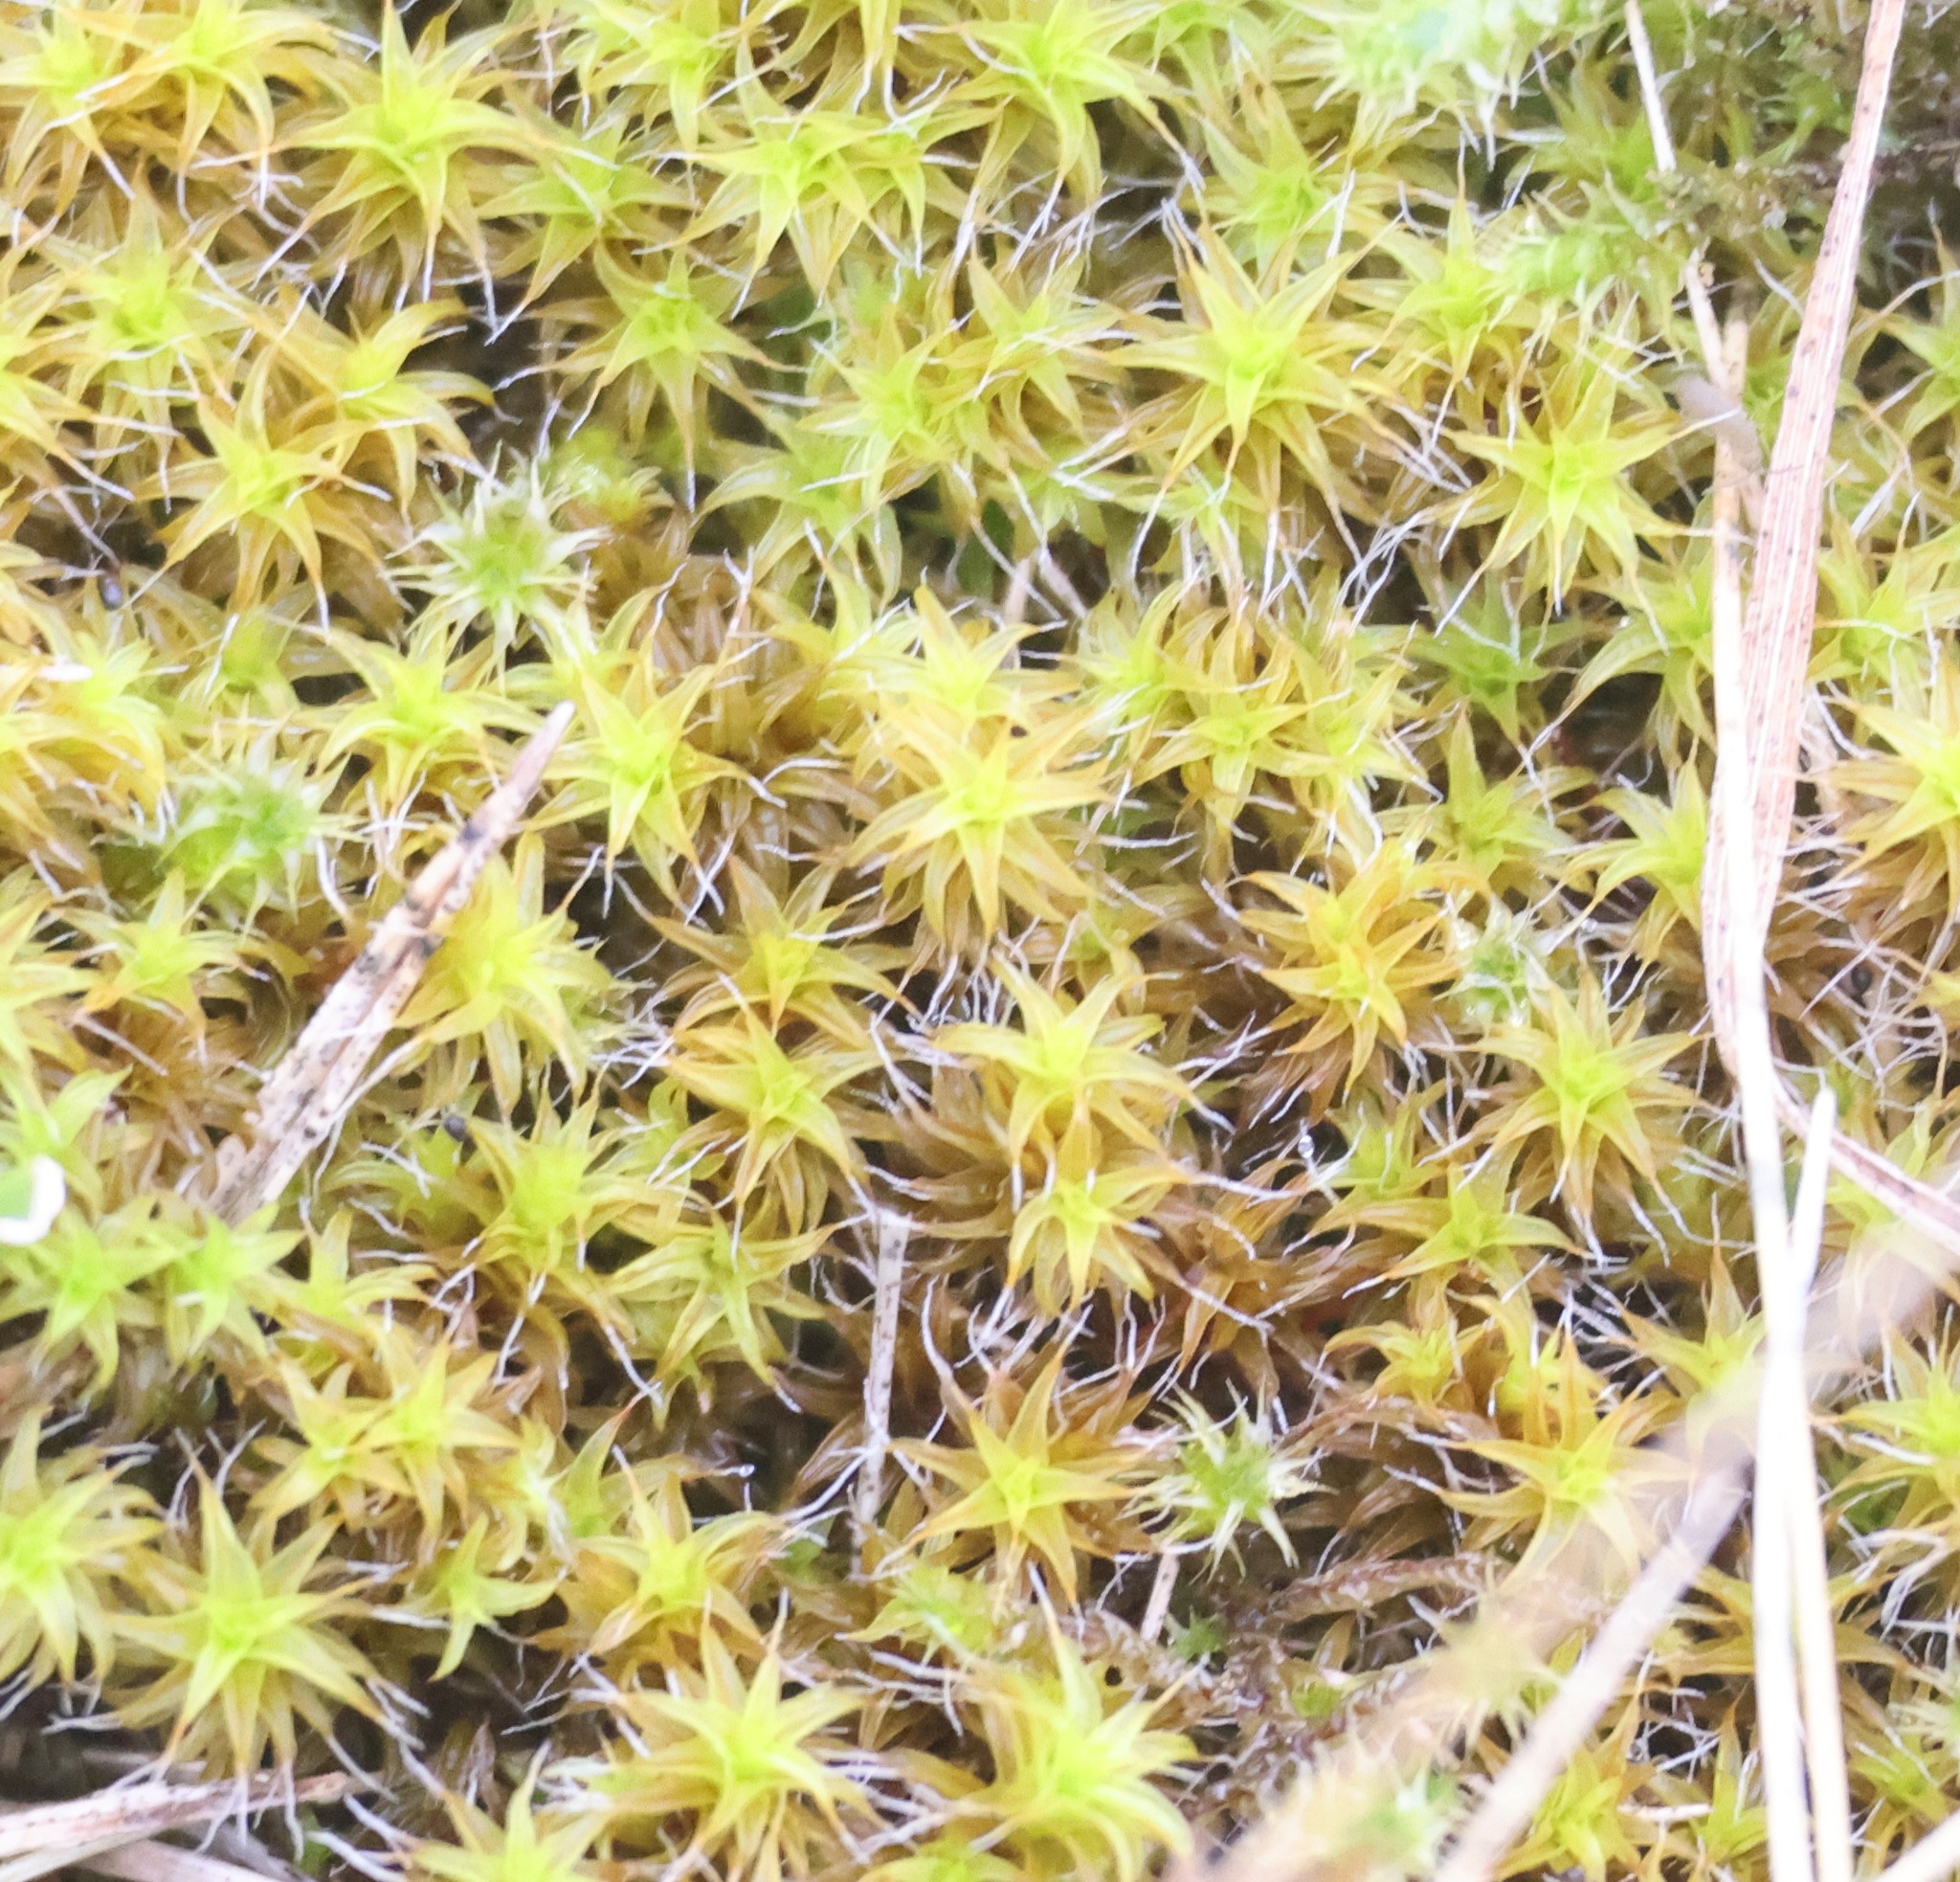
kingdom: Plantae
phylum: Bryophyta
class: Bryopsida
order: Pottiales
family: Pottiaceae
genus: Syntrichia
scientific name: Syntrichia ruralis
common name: Sidewalk screw moss
